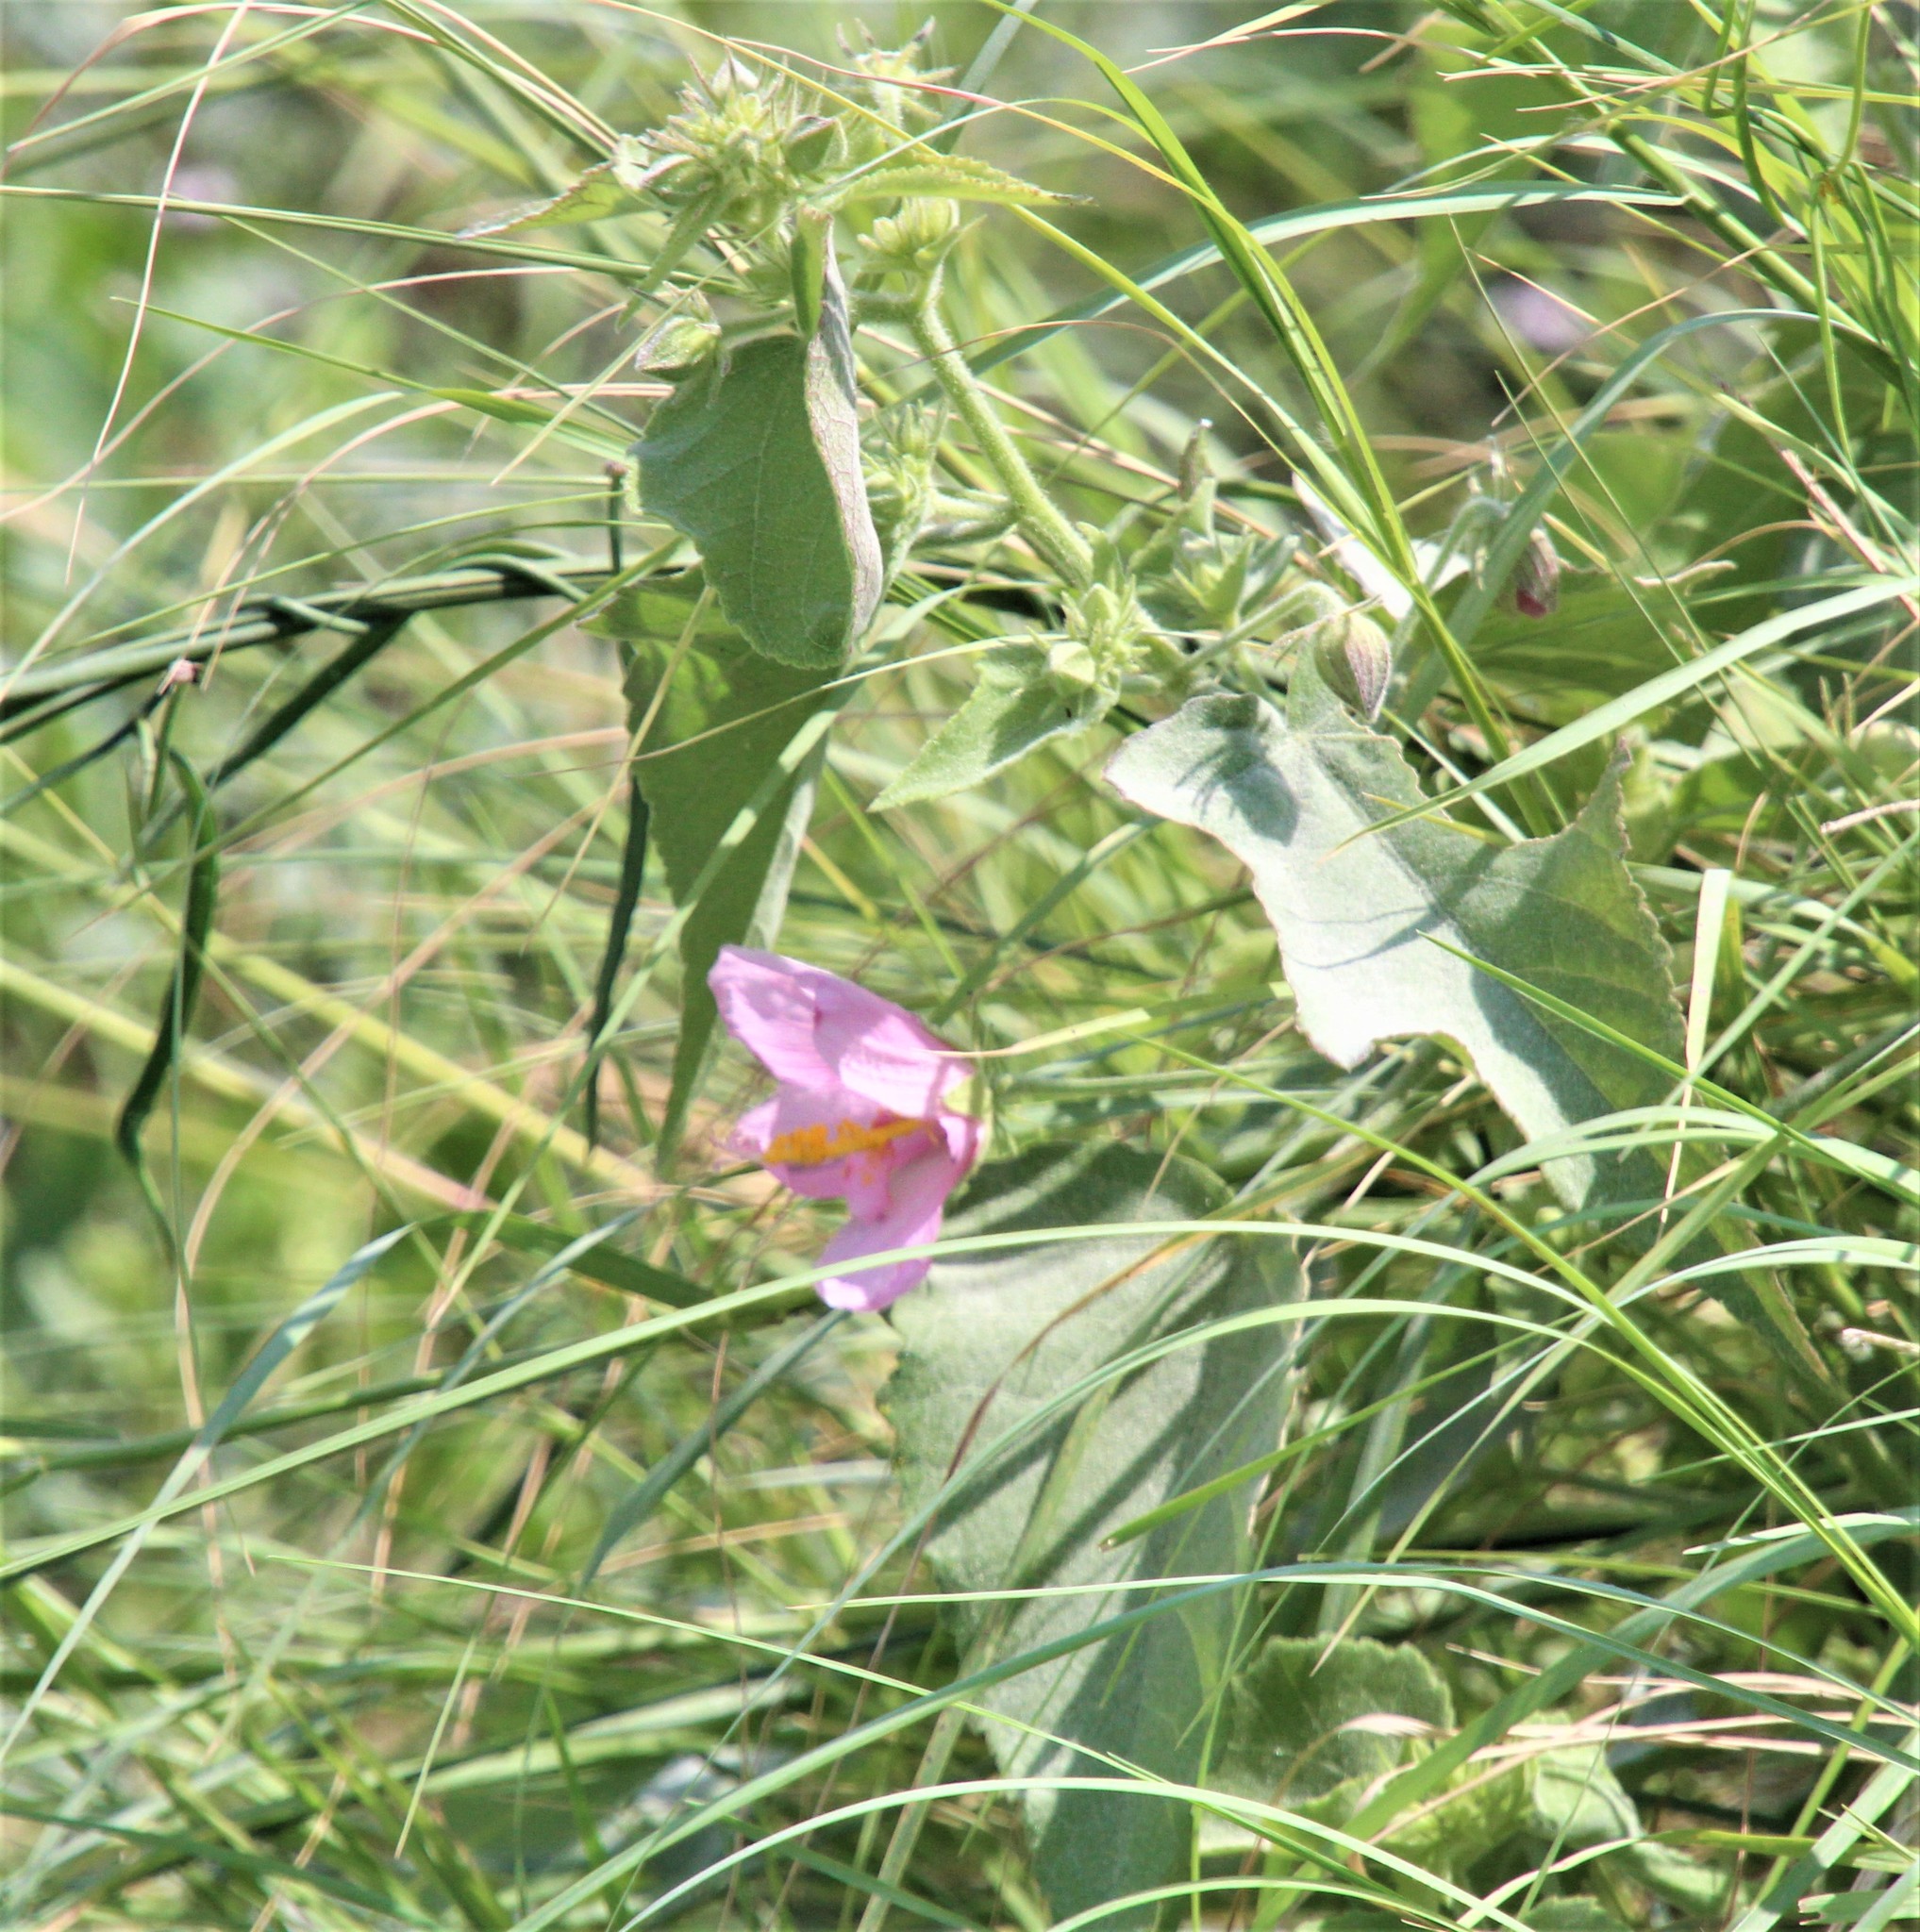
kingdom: Plantae
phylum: Tracheophyta
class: Magnoliopsida
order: Malvales
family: Malvaceae
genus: Kosteletzkya
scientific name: Kosteletzkya pentacarpos
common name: Virginia saltmarsh mallow
